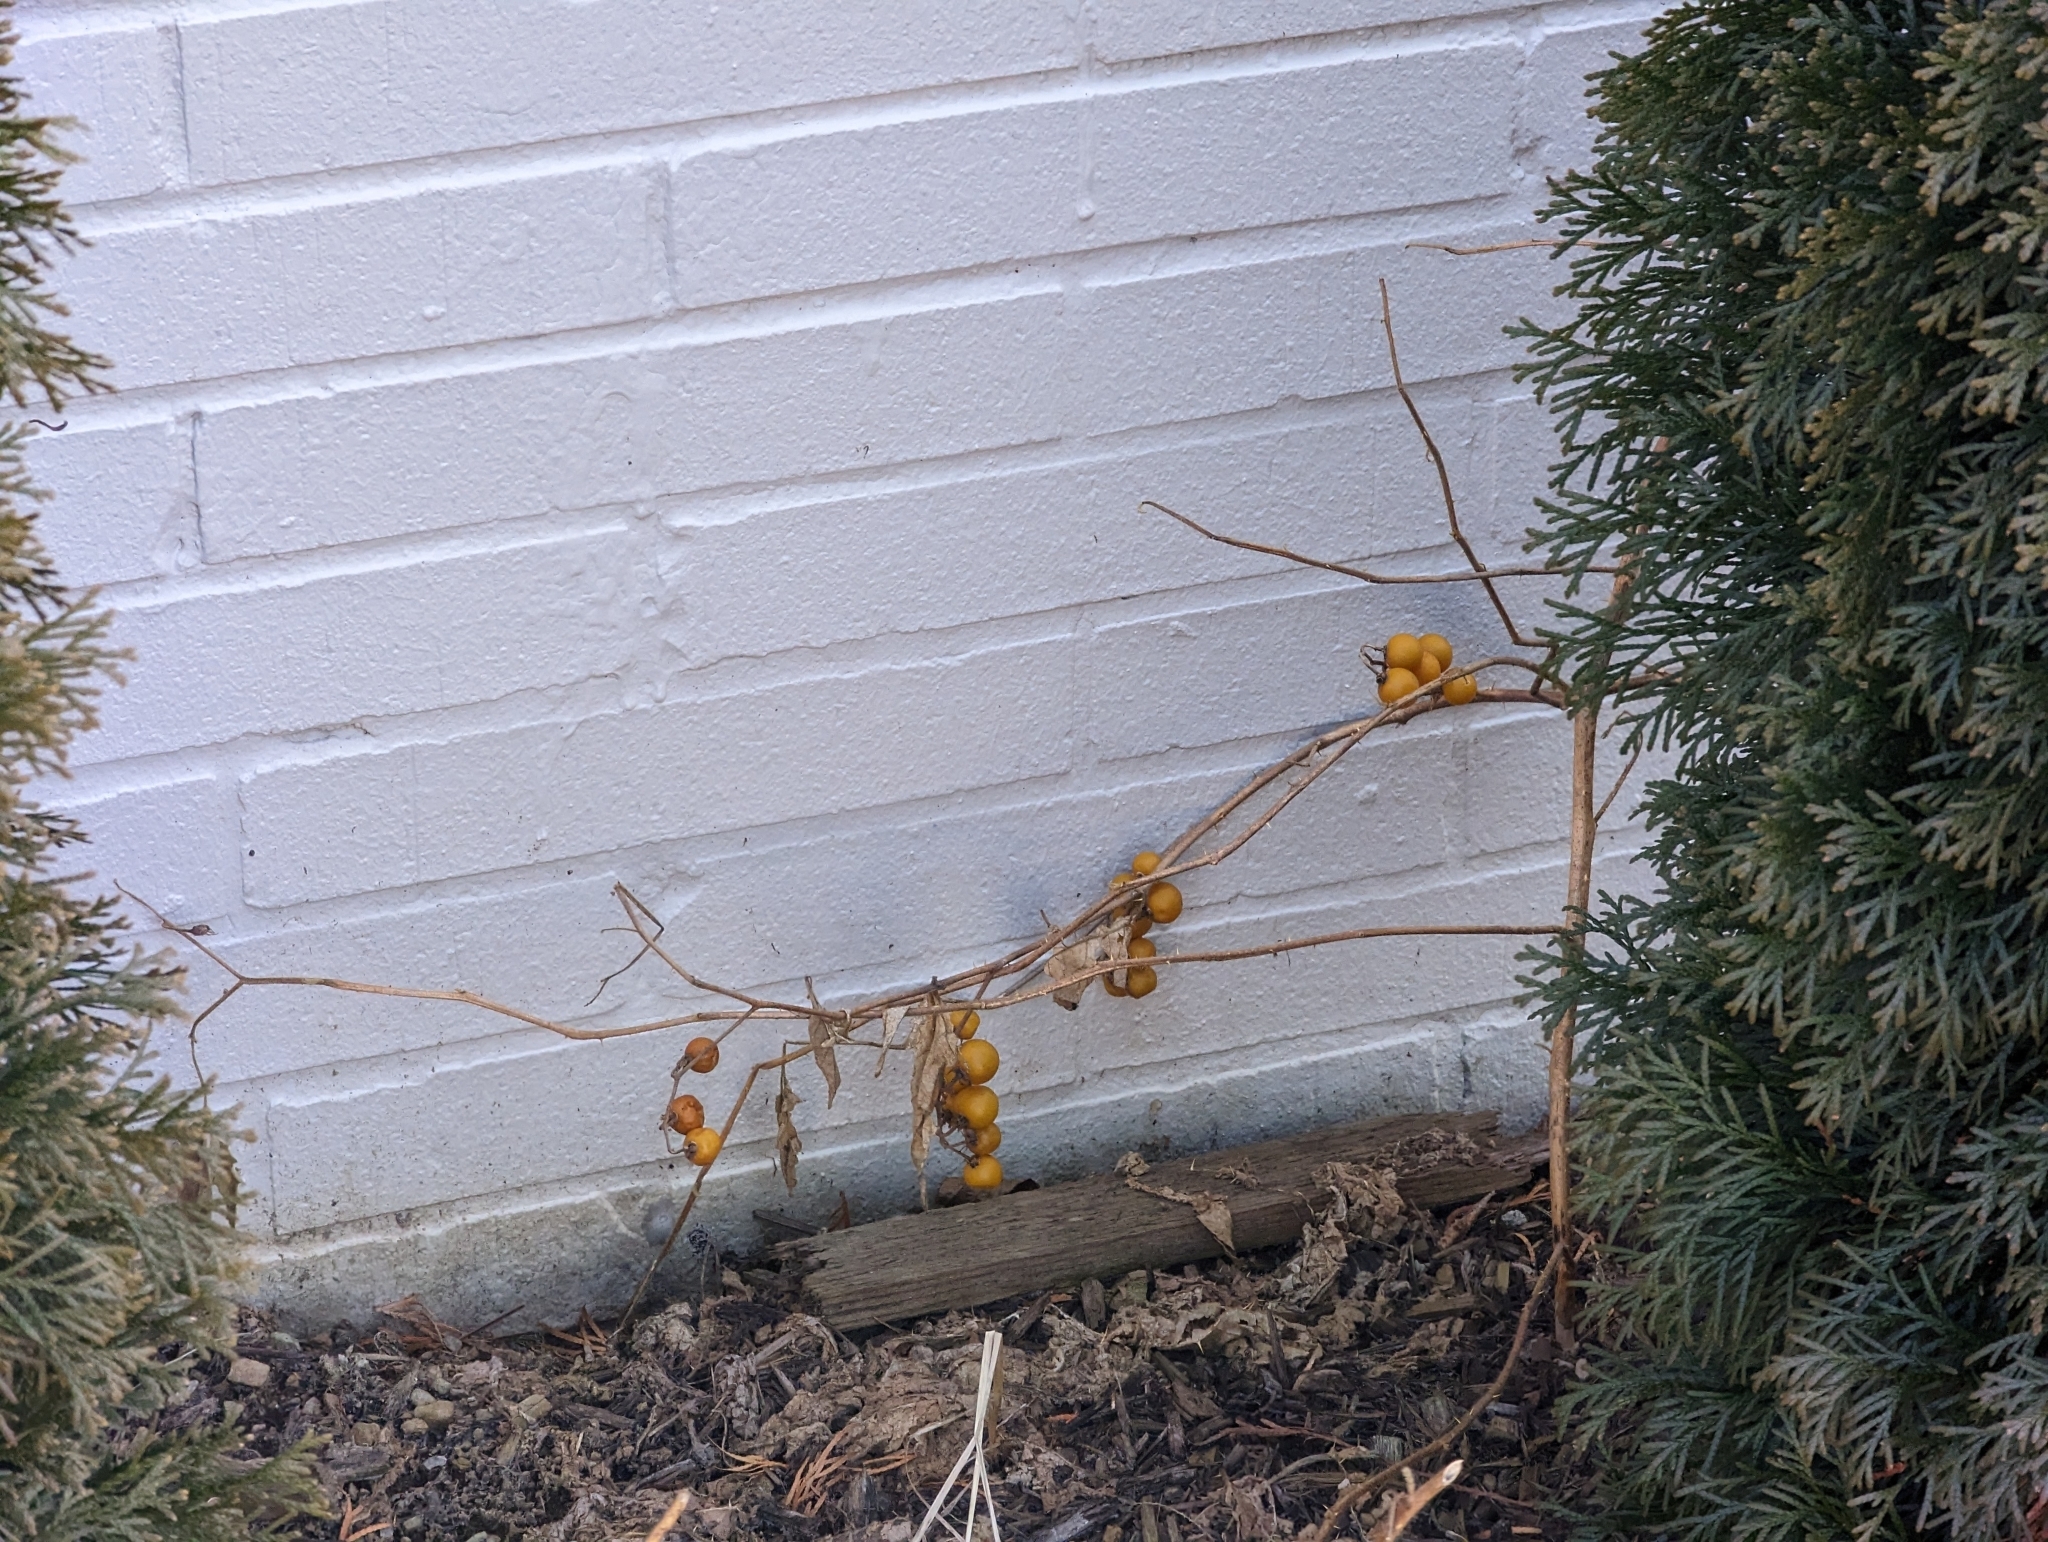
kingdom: Plantae
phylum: Tracheophyta
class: Magnoliopsida
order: Solanales
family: Solanaceae
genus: Solanum
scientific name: Solanum carolinense
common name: Horse-nettle
